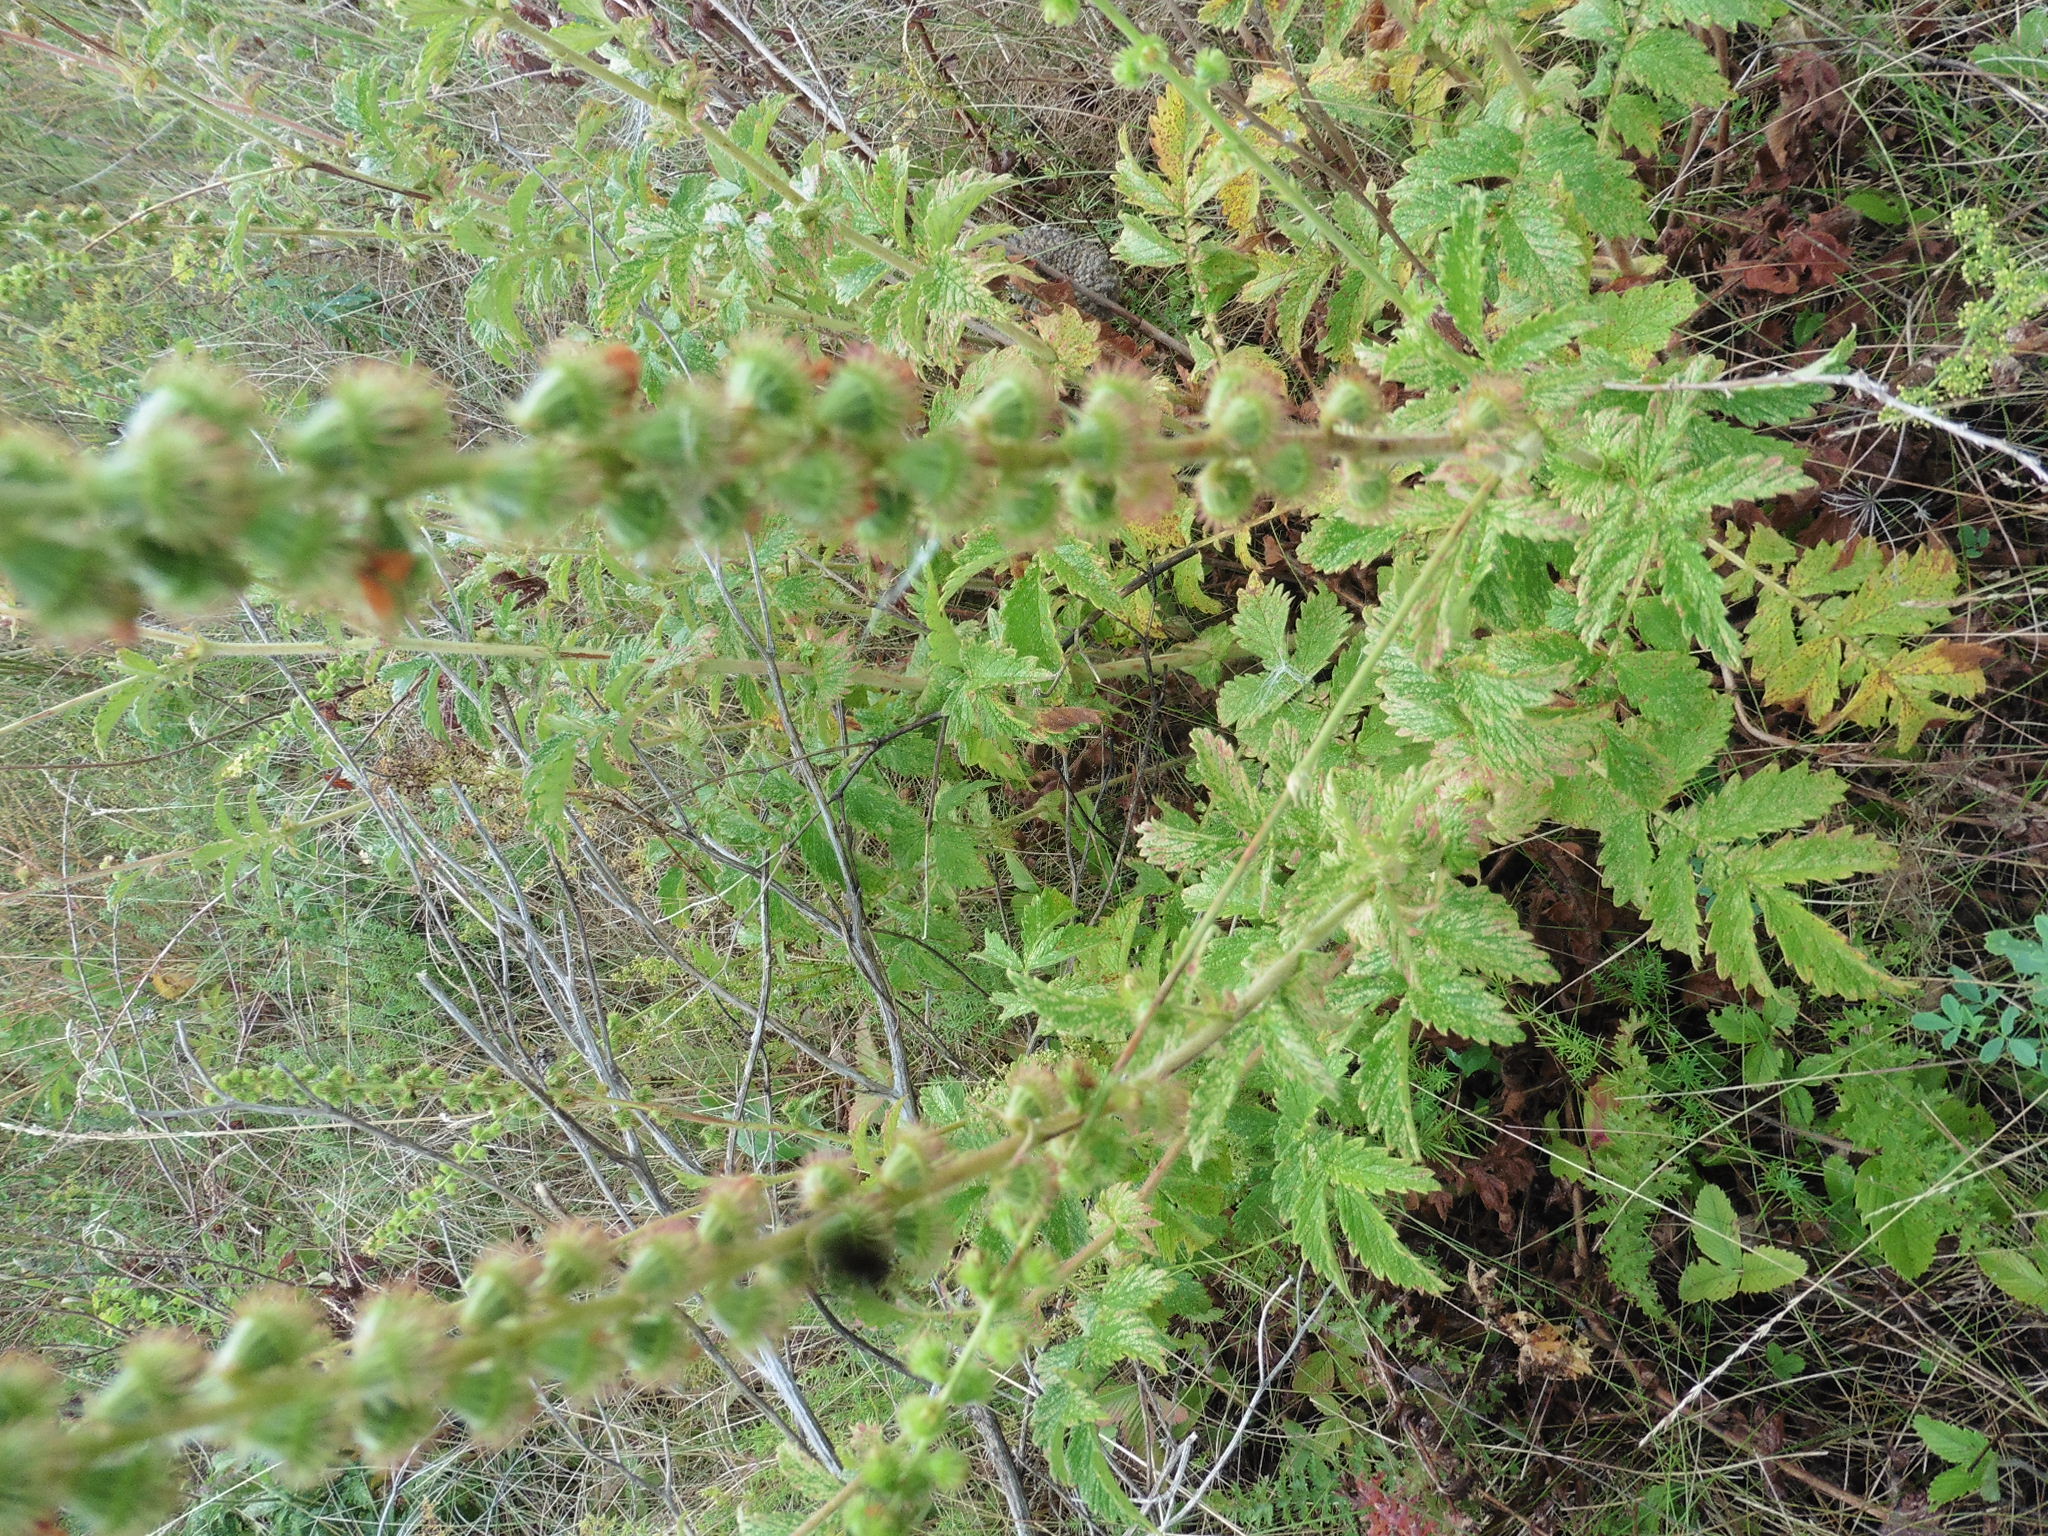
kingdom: Plantae
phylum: Tracheophyta
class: Magnoliopsida
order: Rosales
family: Rosaceae
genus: Agrimonia
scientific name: Agrimonia eupatoria
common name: Agrimony
